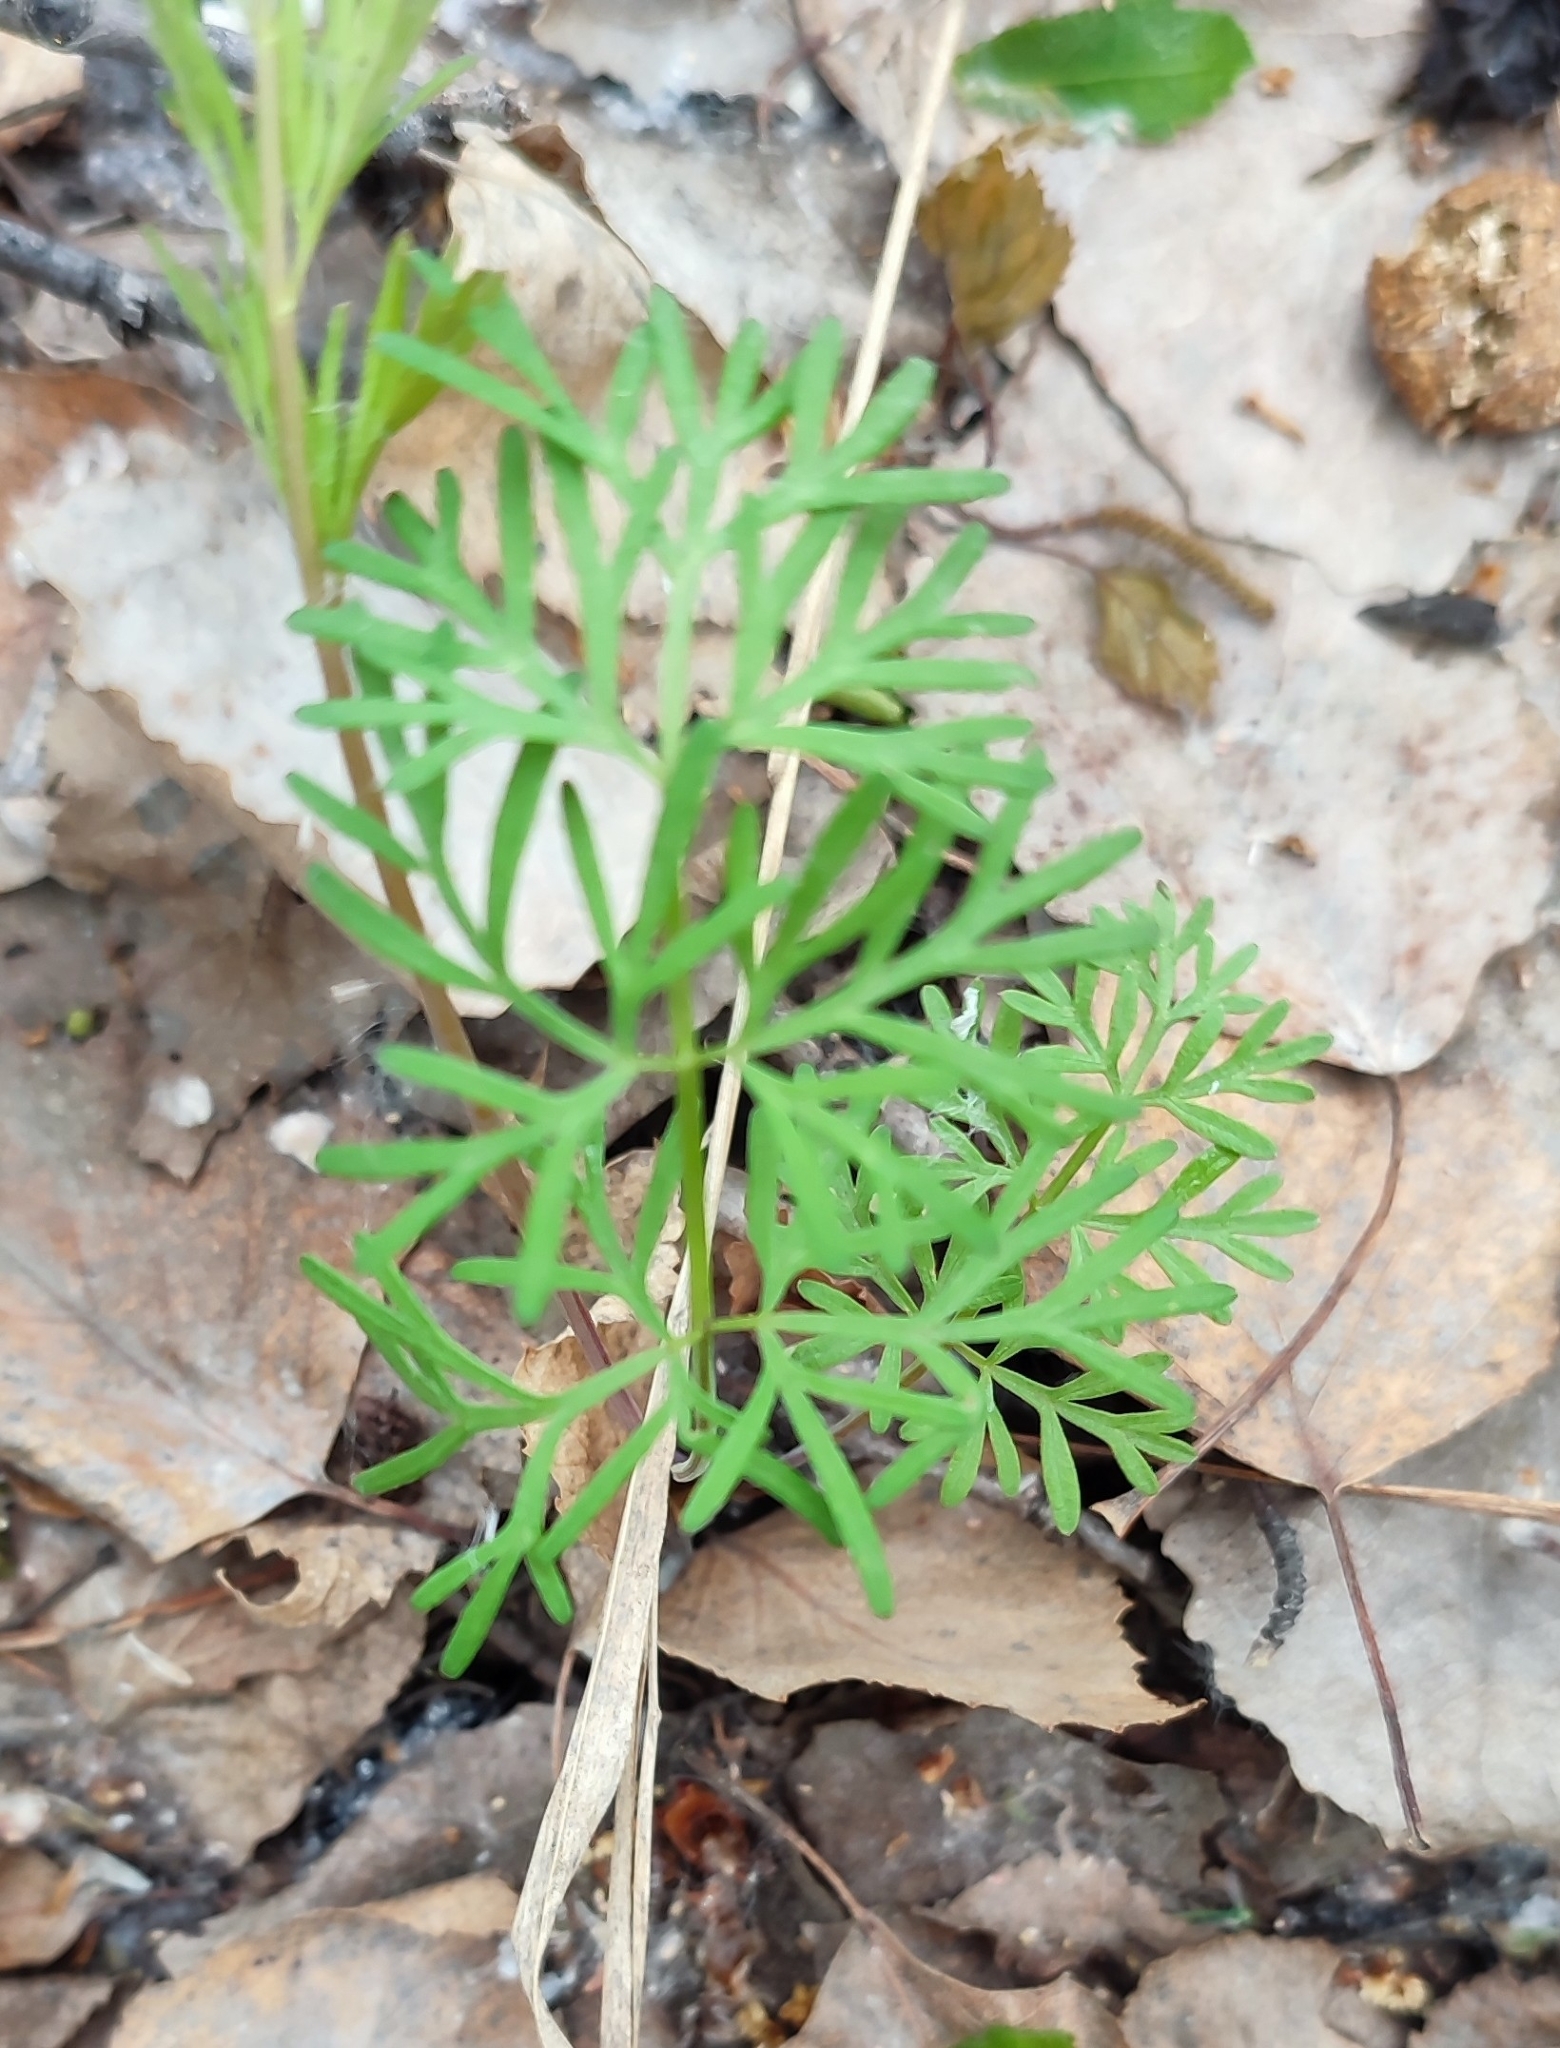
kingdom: Plantae
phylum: Tracheophyta
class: Magnoliopsida
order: Apiales
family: Apiaceae
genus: Kadenia
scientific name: Kadenia dubia
